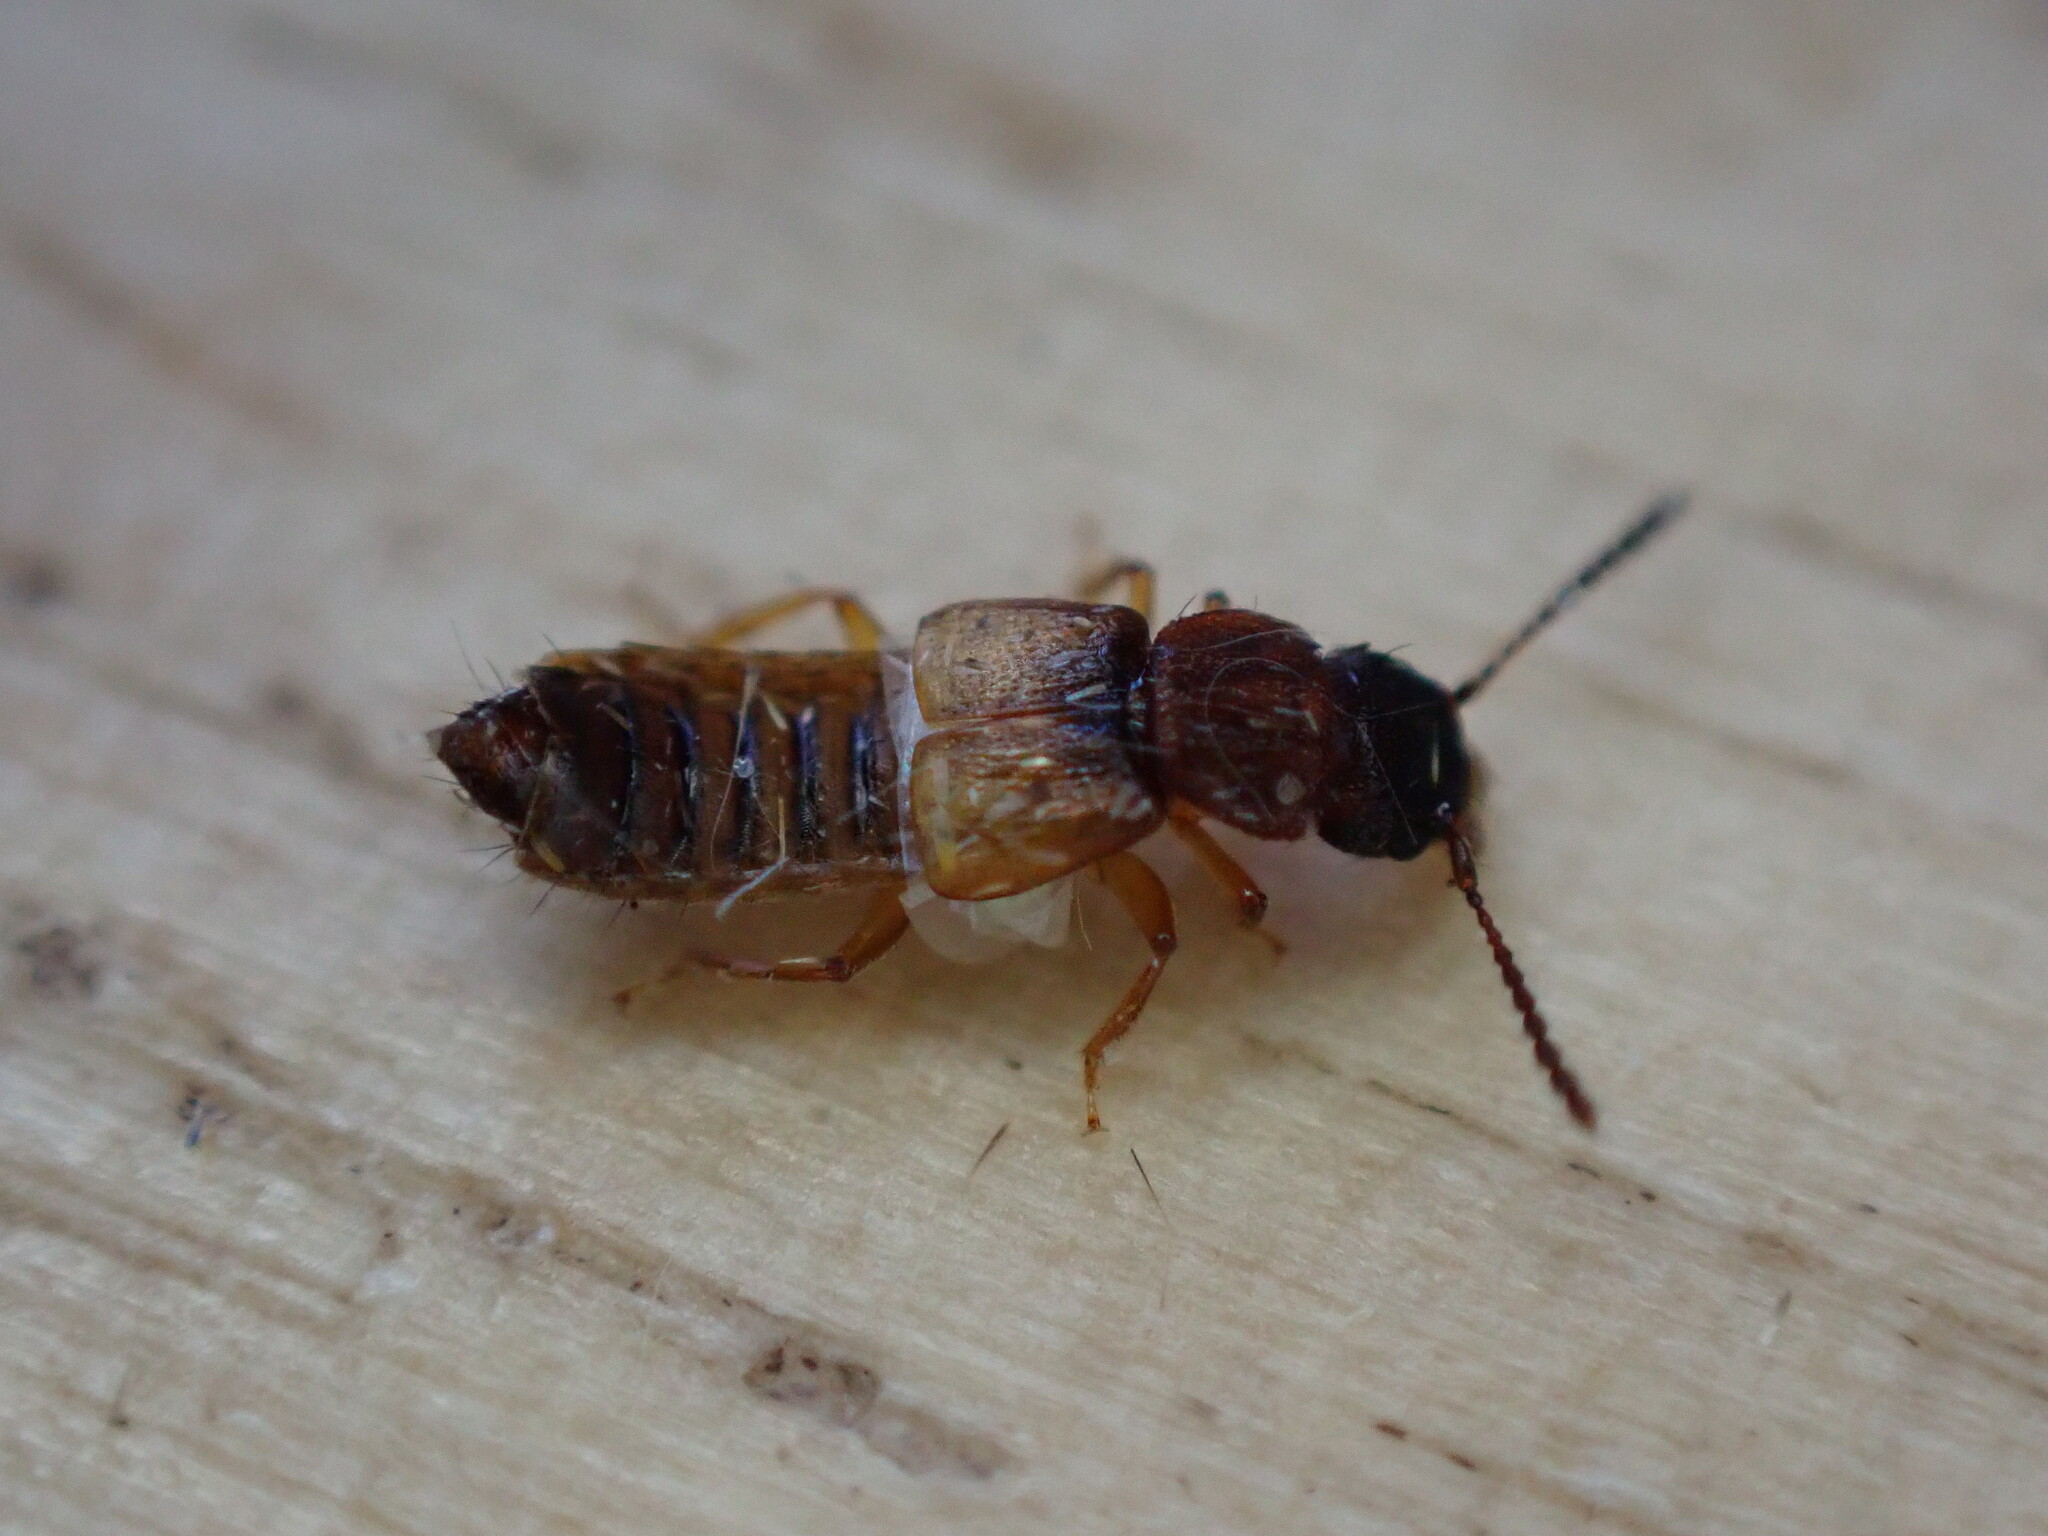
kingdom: Animalia
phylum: Arthropoda
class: Insecta
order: Coleoptera
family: Staphylinidae
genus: Anotylus
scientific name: Anotylus rugosus
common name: Rove beetle
